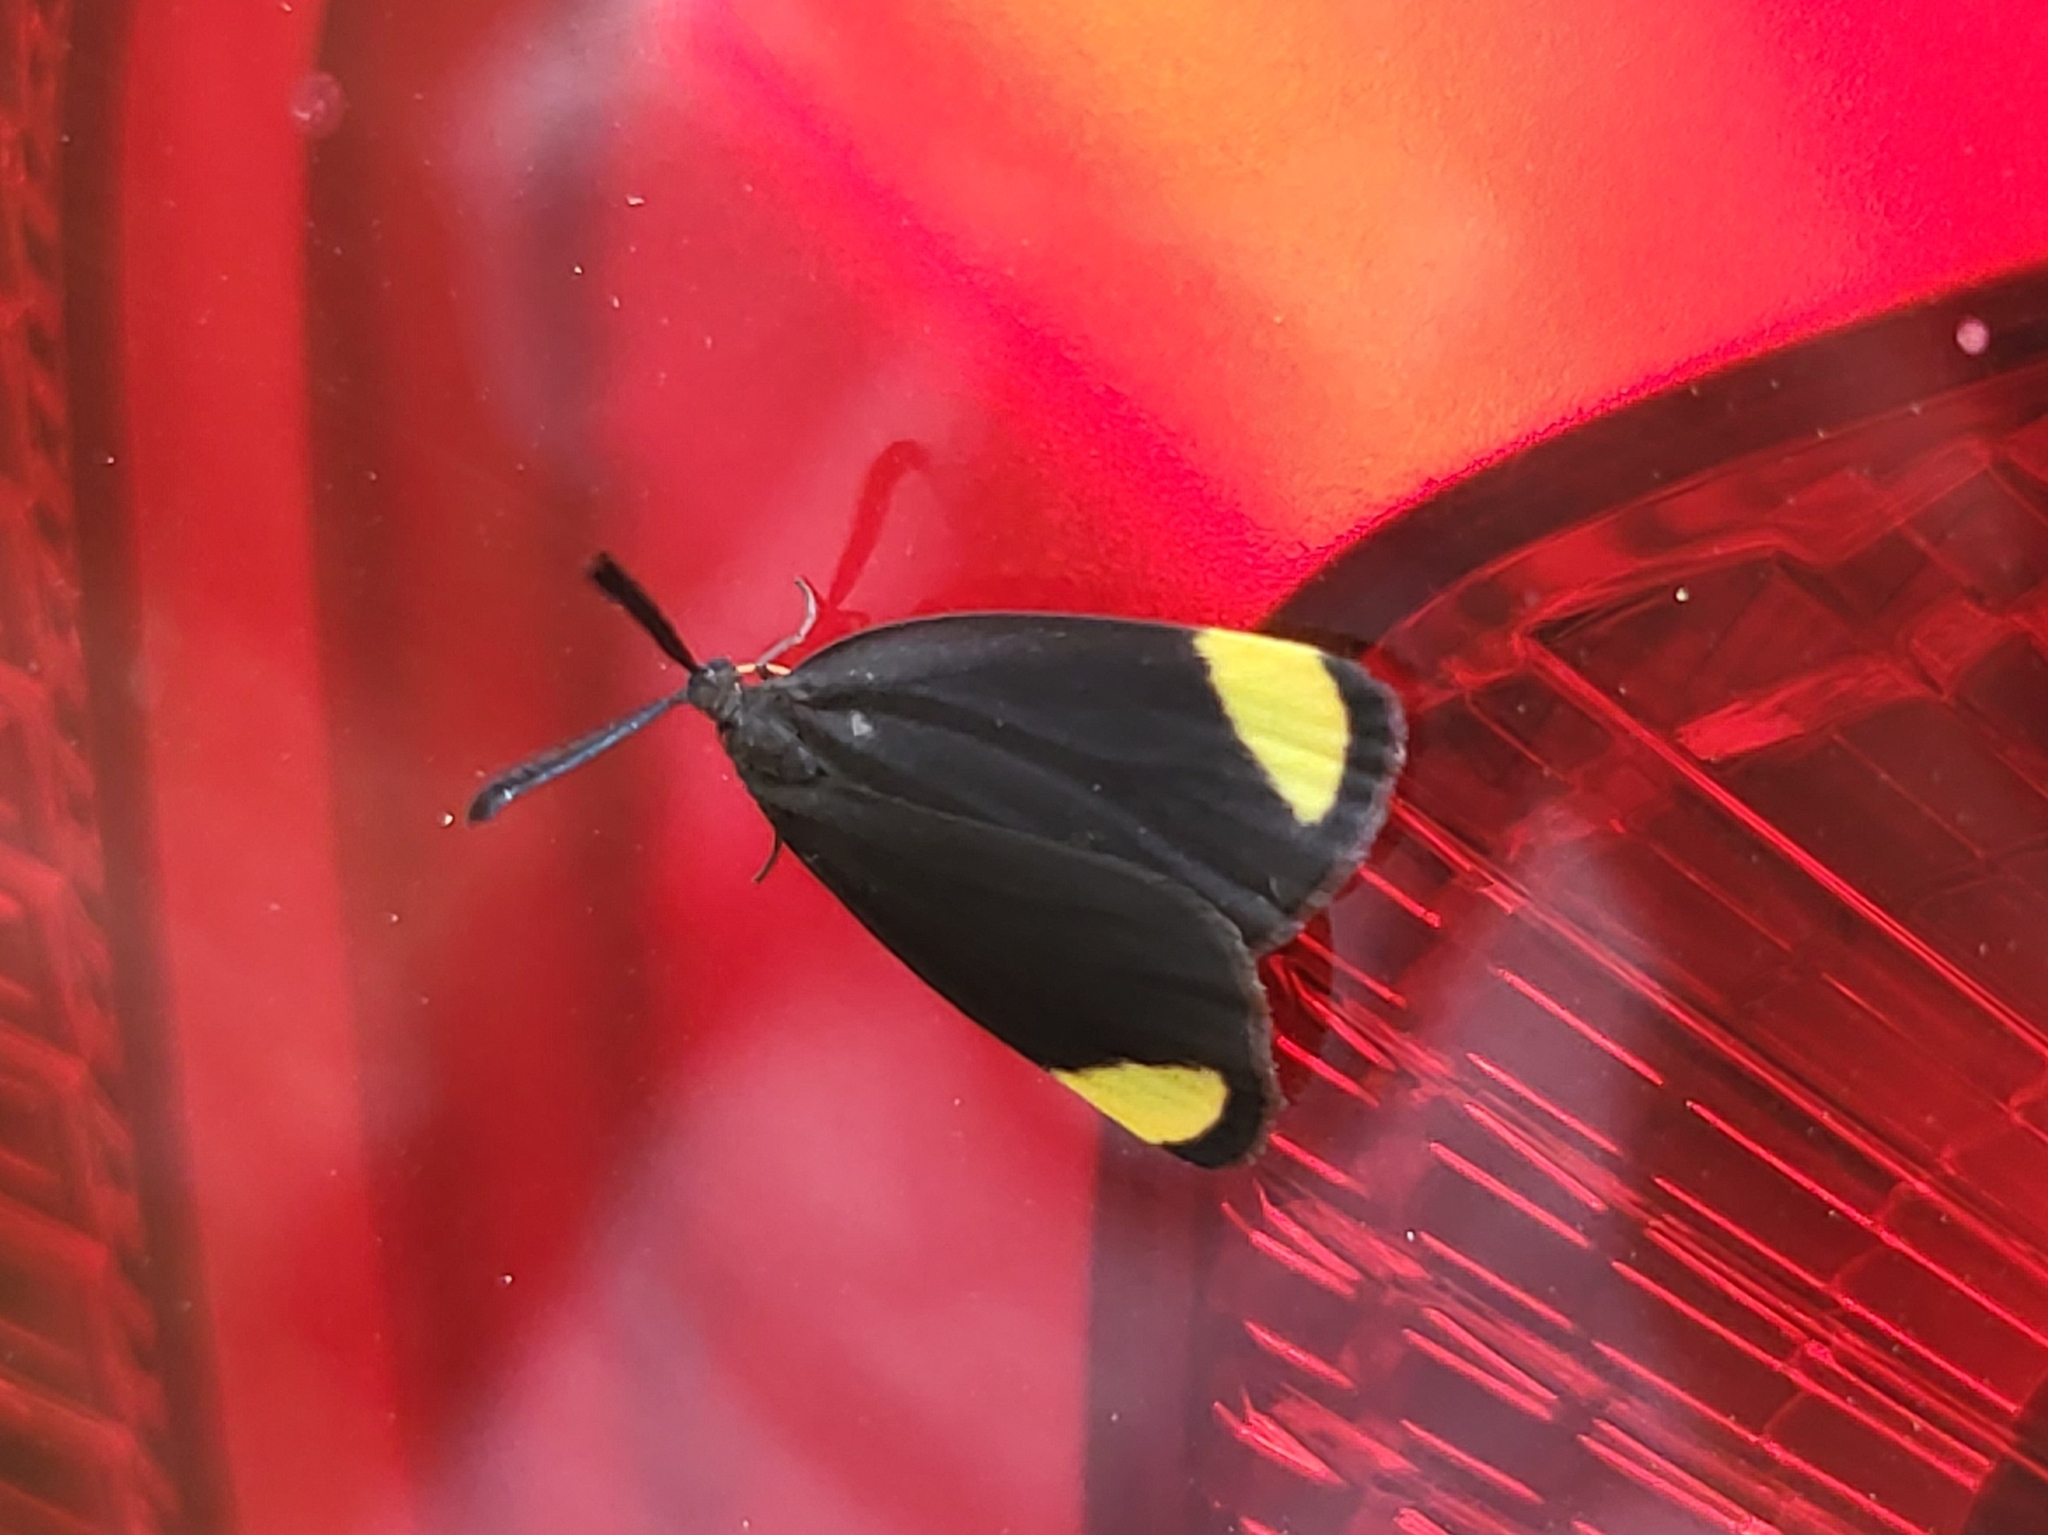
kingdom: Animalia
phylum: Arthropoda
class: Insecta
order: Lepidoptera
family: Zygaenidae
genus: Heteropanula
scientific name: Heteropanula
